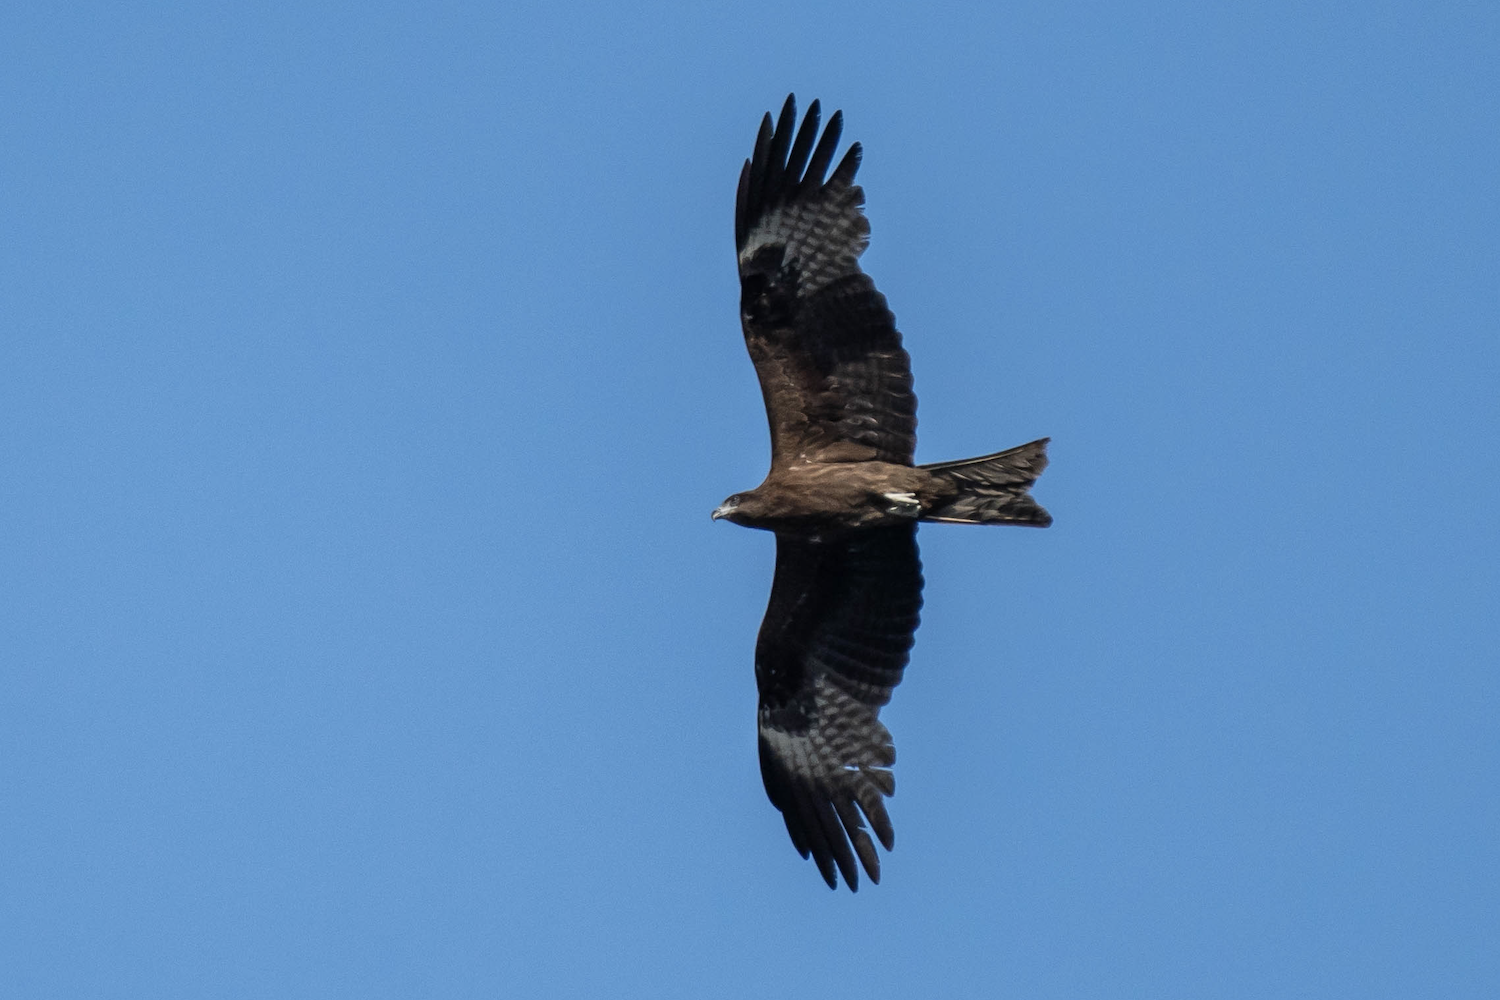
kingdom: Animalia
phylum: Chordata
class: Aves
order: Accipitriformes
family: Accipitridae
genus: Milvus
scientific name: Milvus migrans
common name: Black kite
